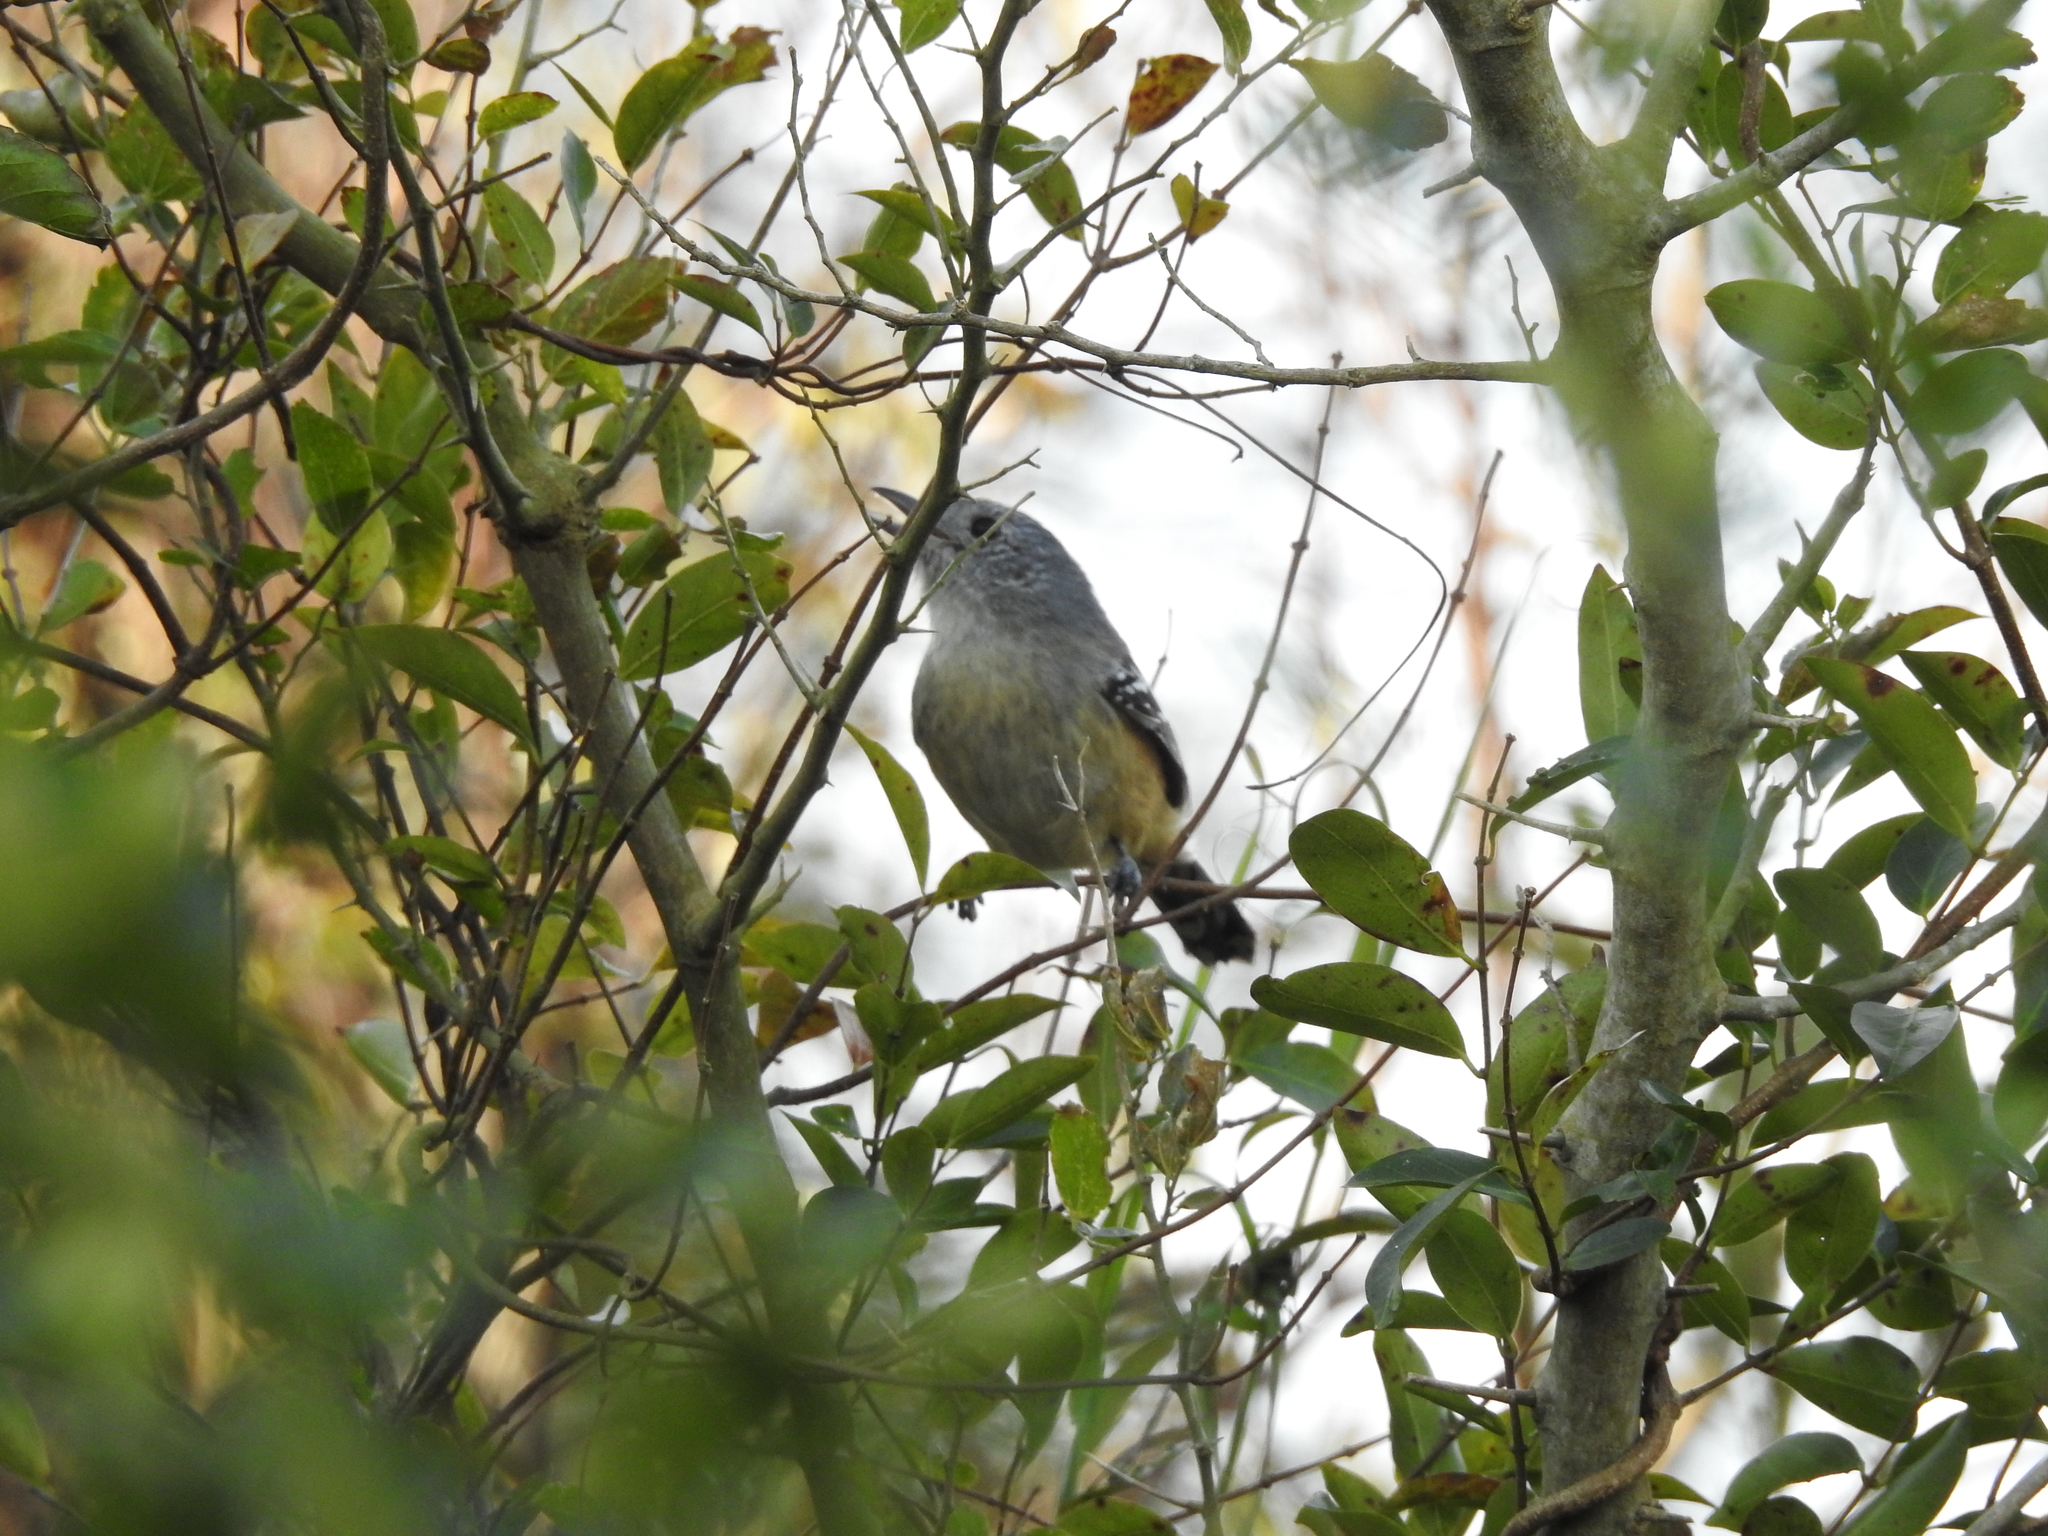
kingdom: Animalia
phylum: Chordata
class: Aves
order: Passeriformes
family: Thamnophilidae
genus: Thamnophilus
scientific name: Thamnophilus caerulescens
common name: Variable antshrike
